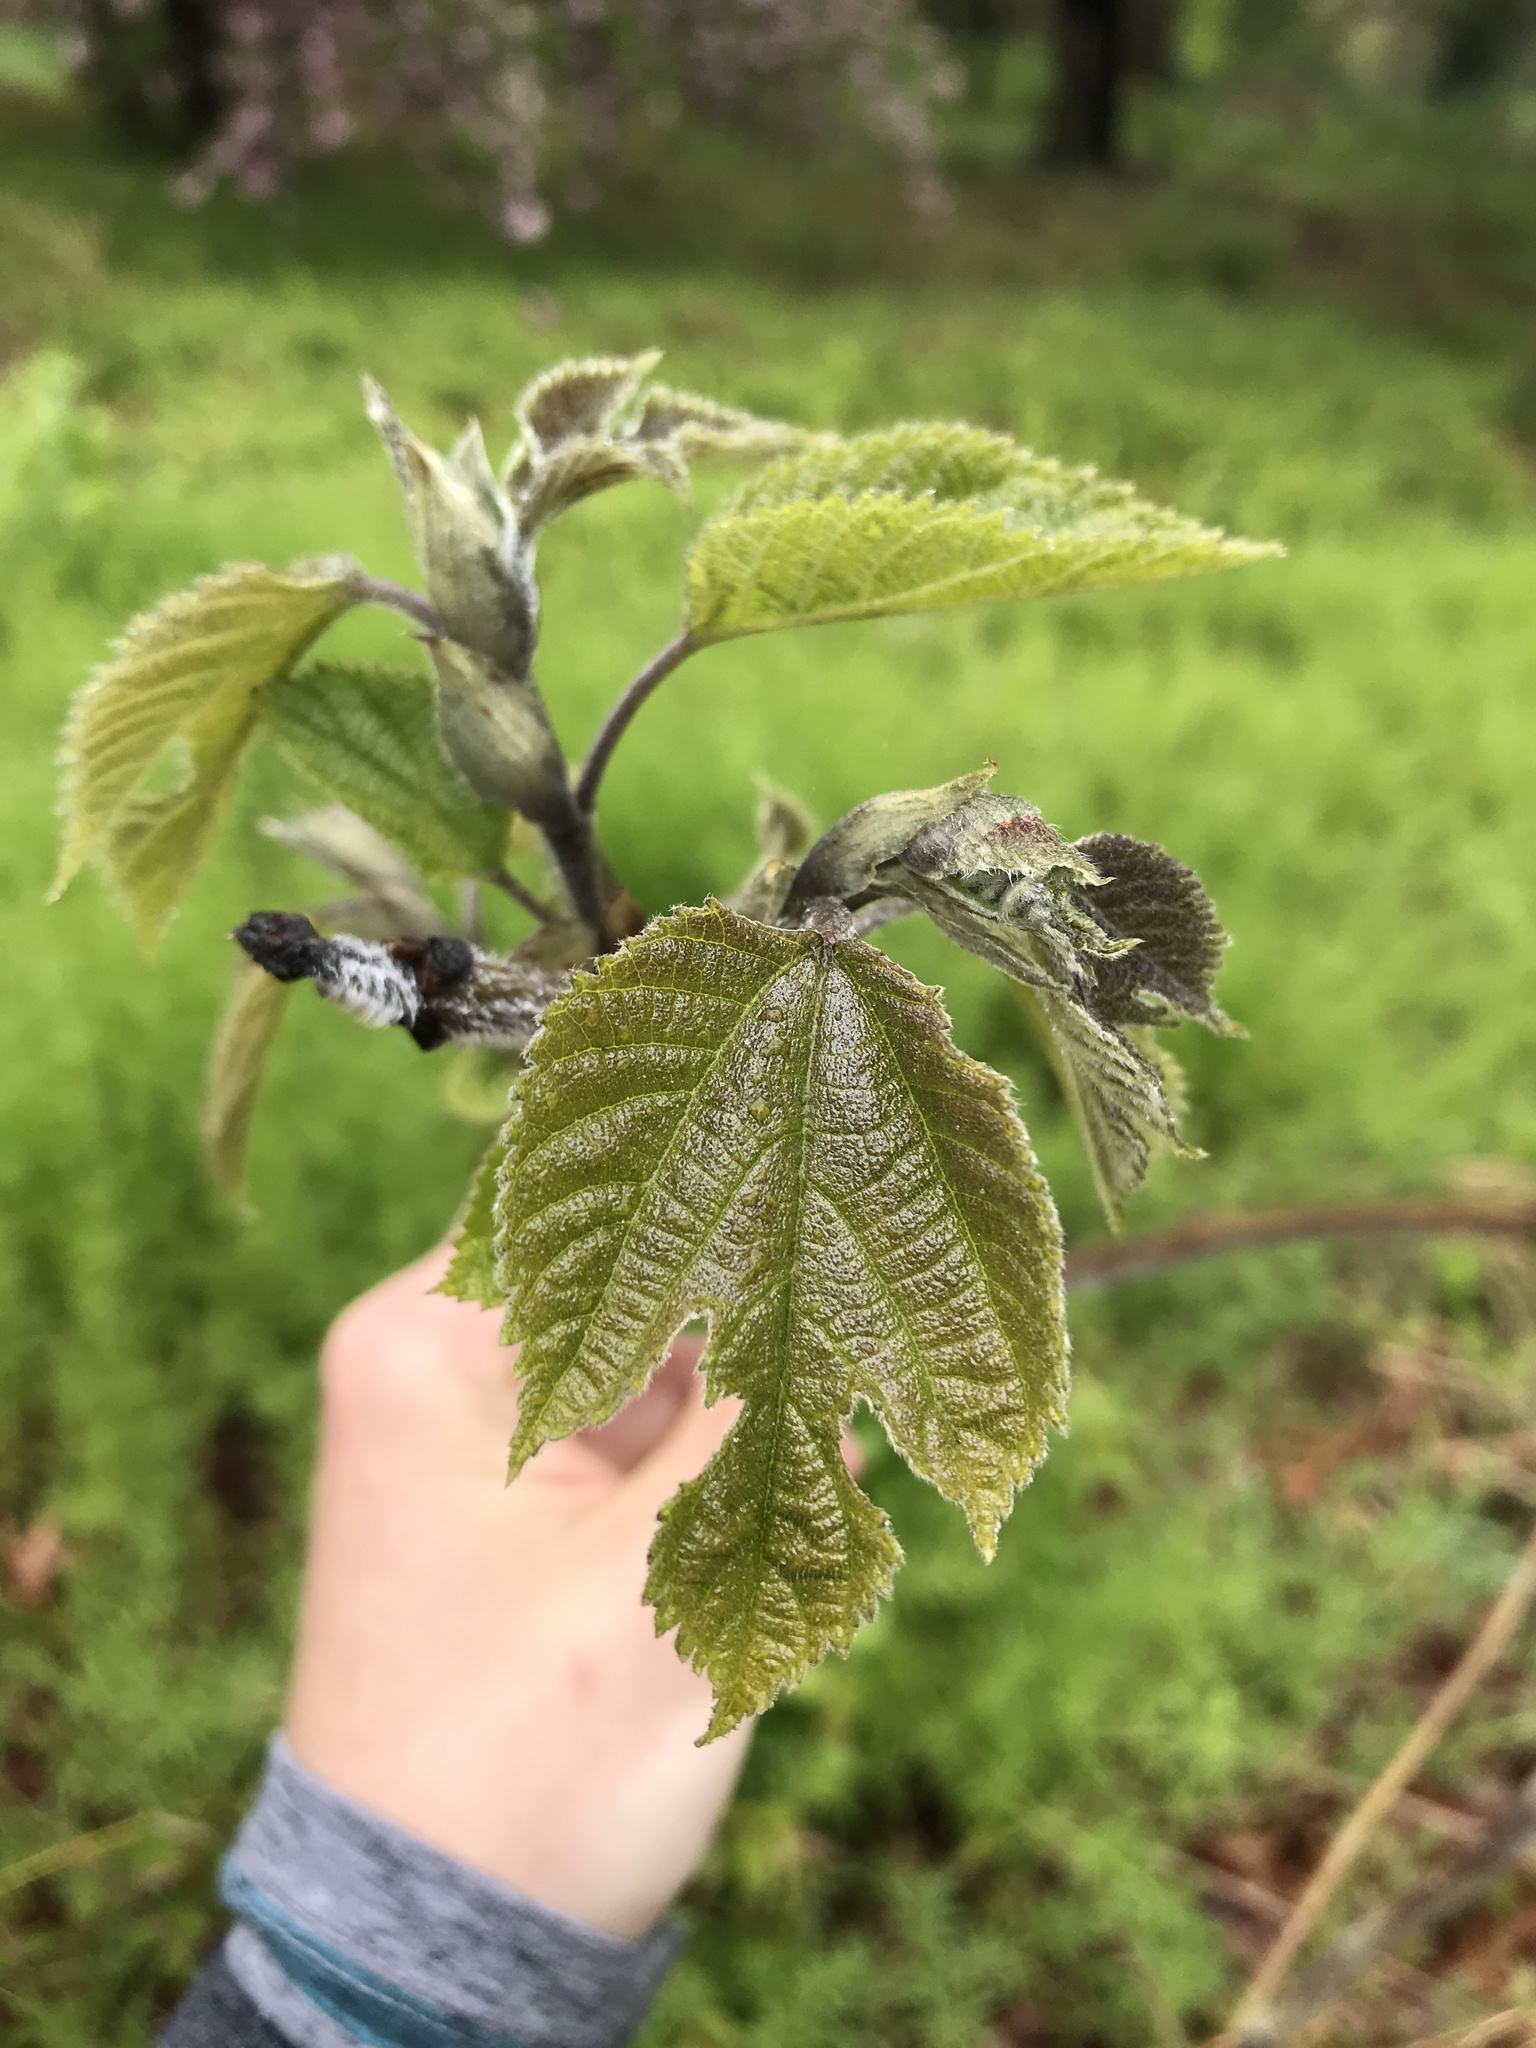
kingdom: Plantae
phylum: Tracheophyta
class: Magnoliopsida
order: Rosales
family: Moraceae
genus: Broussonetia
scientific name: Broussonetia papyrifera
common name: Paper mulberry
